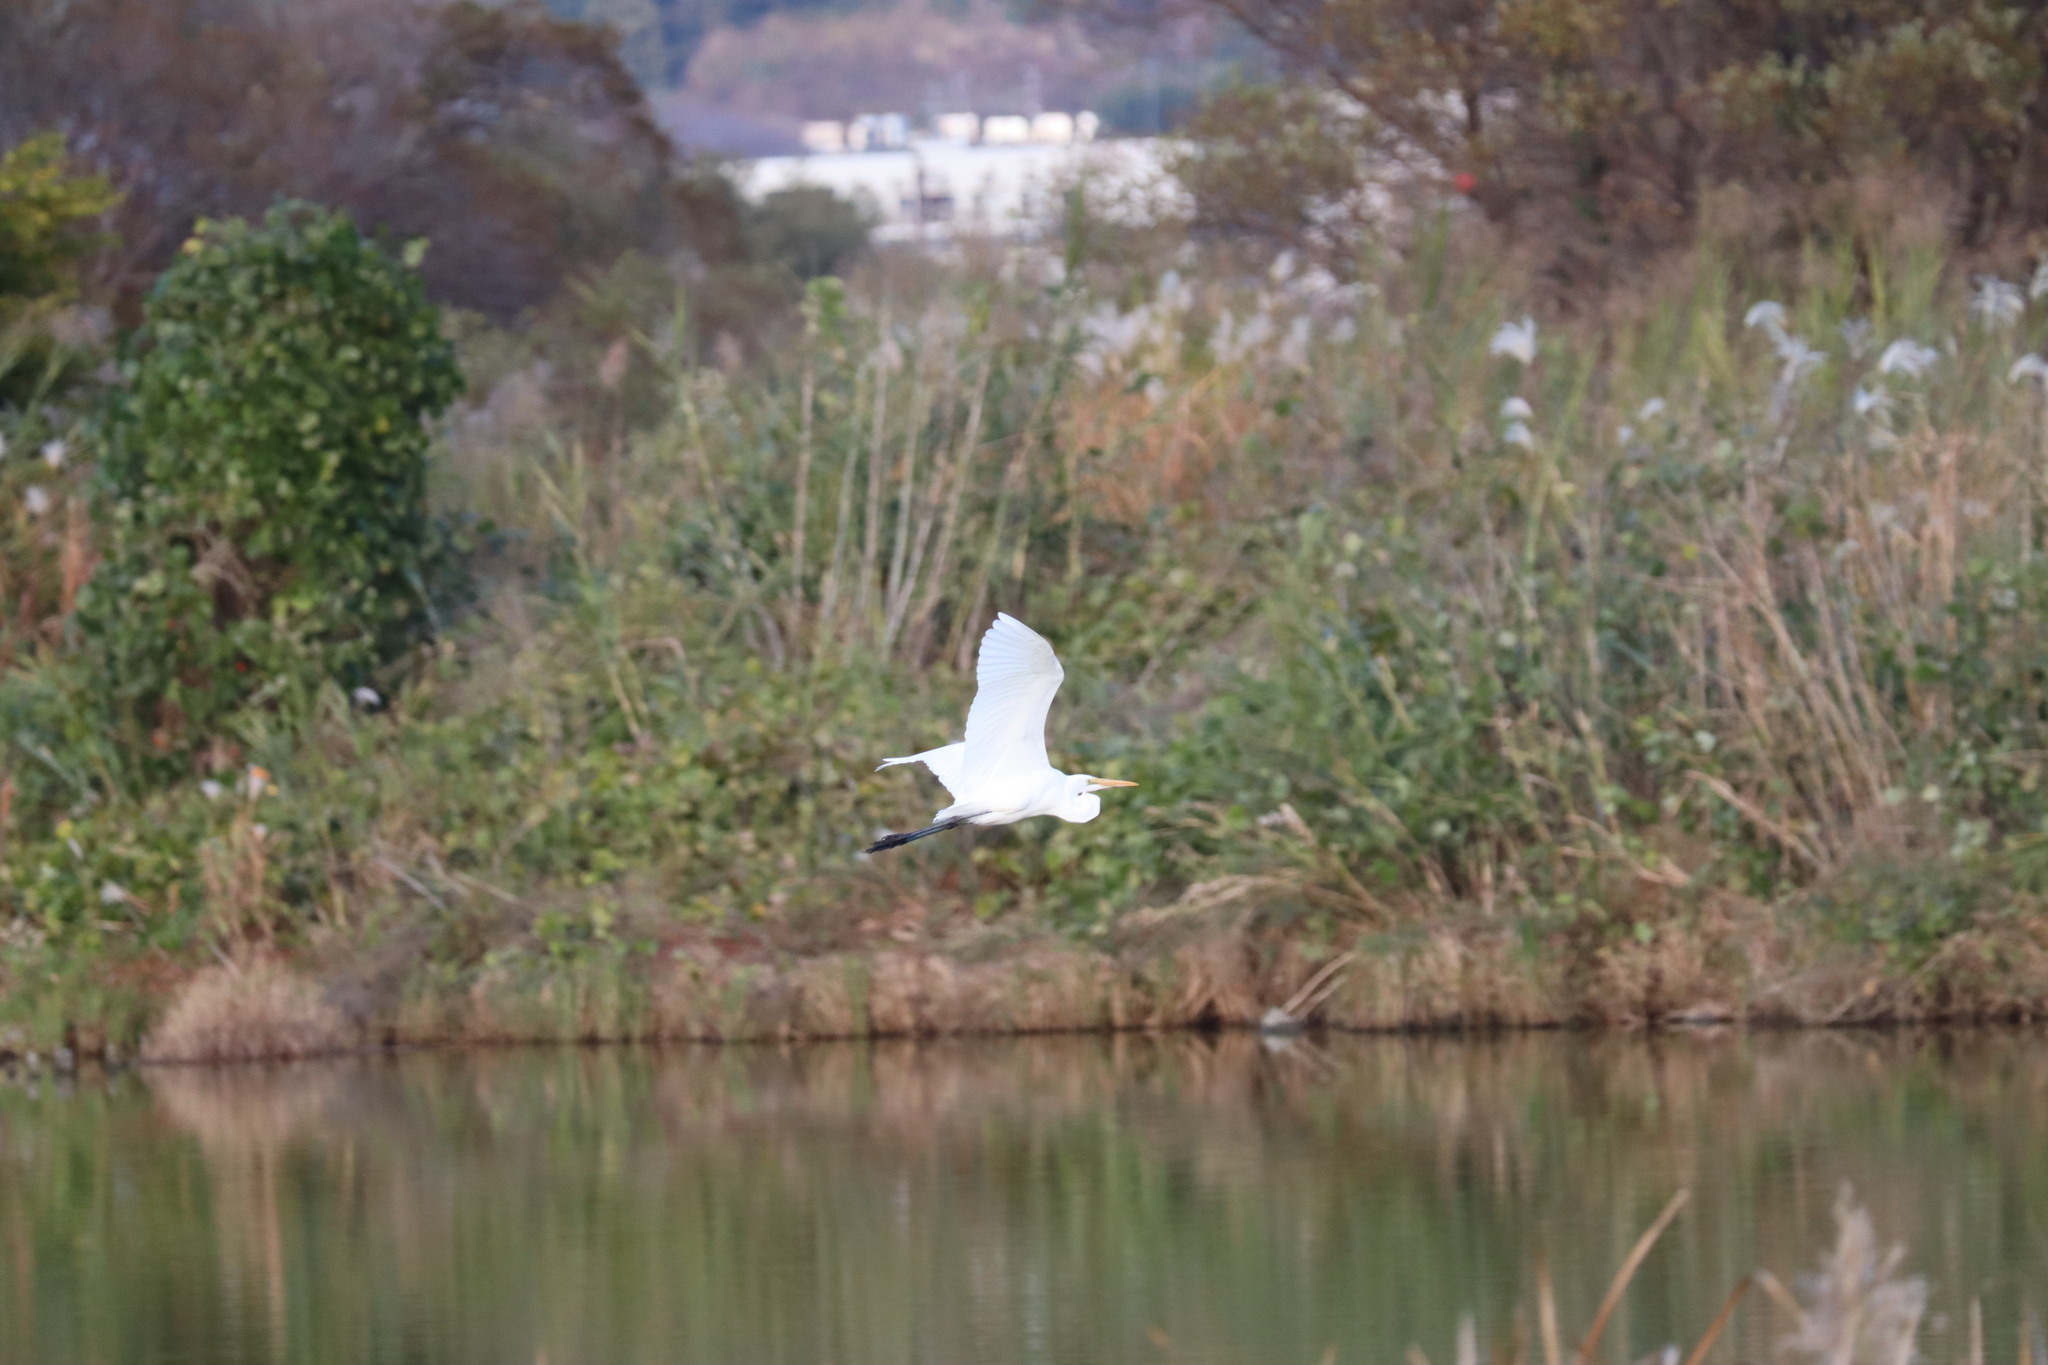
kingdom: Animalia
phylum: Chordata
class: Aves
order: Pelecaniformes
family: Ardeidae
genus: Ardea
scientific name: Ardea alba
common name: Great egret
